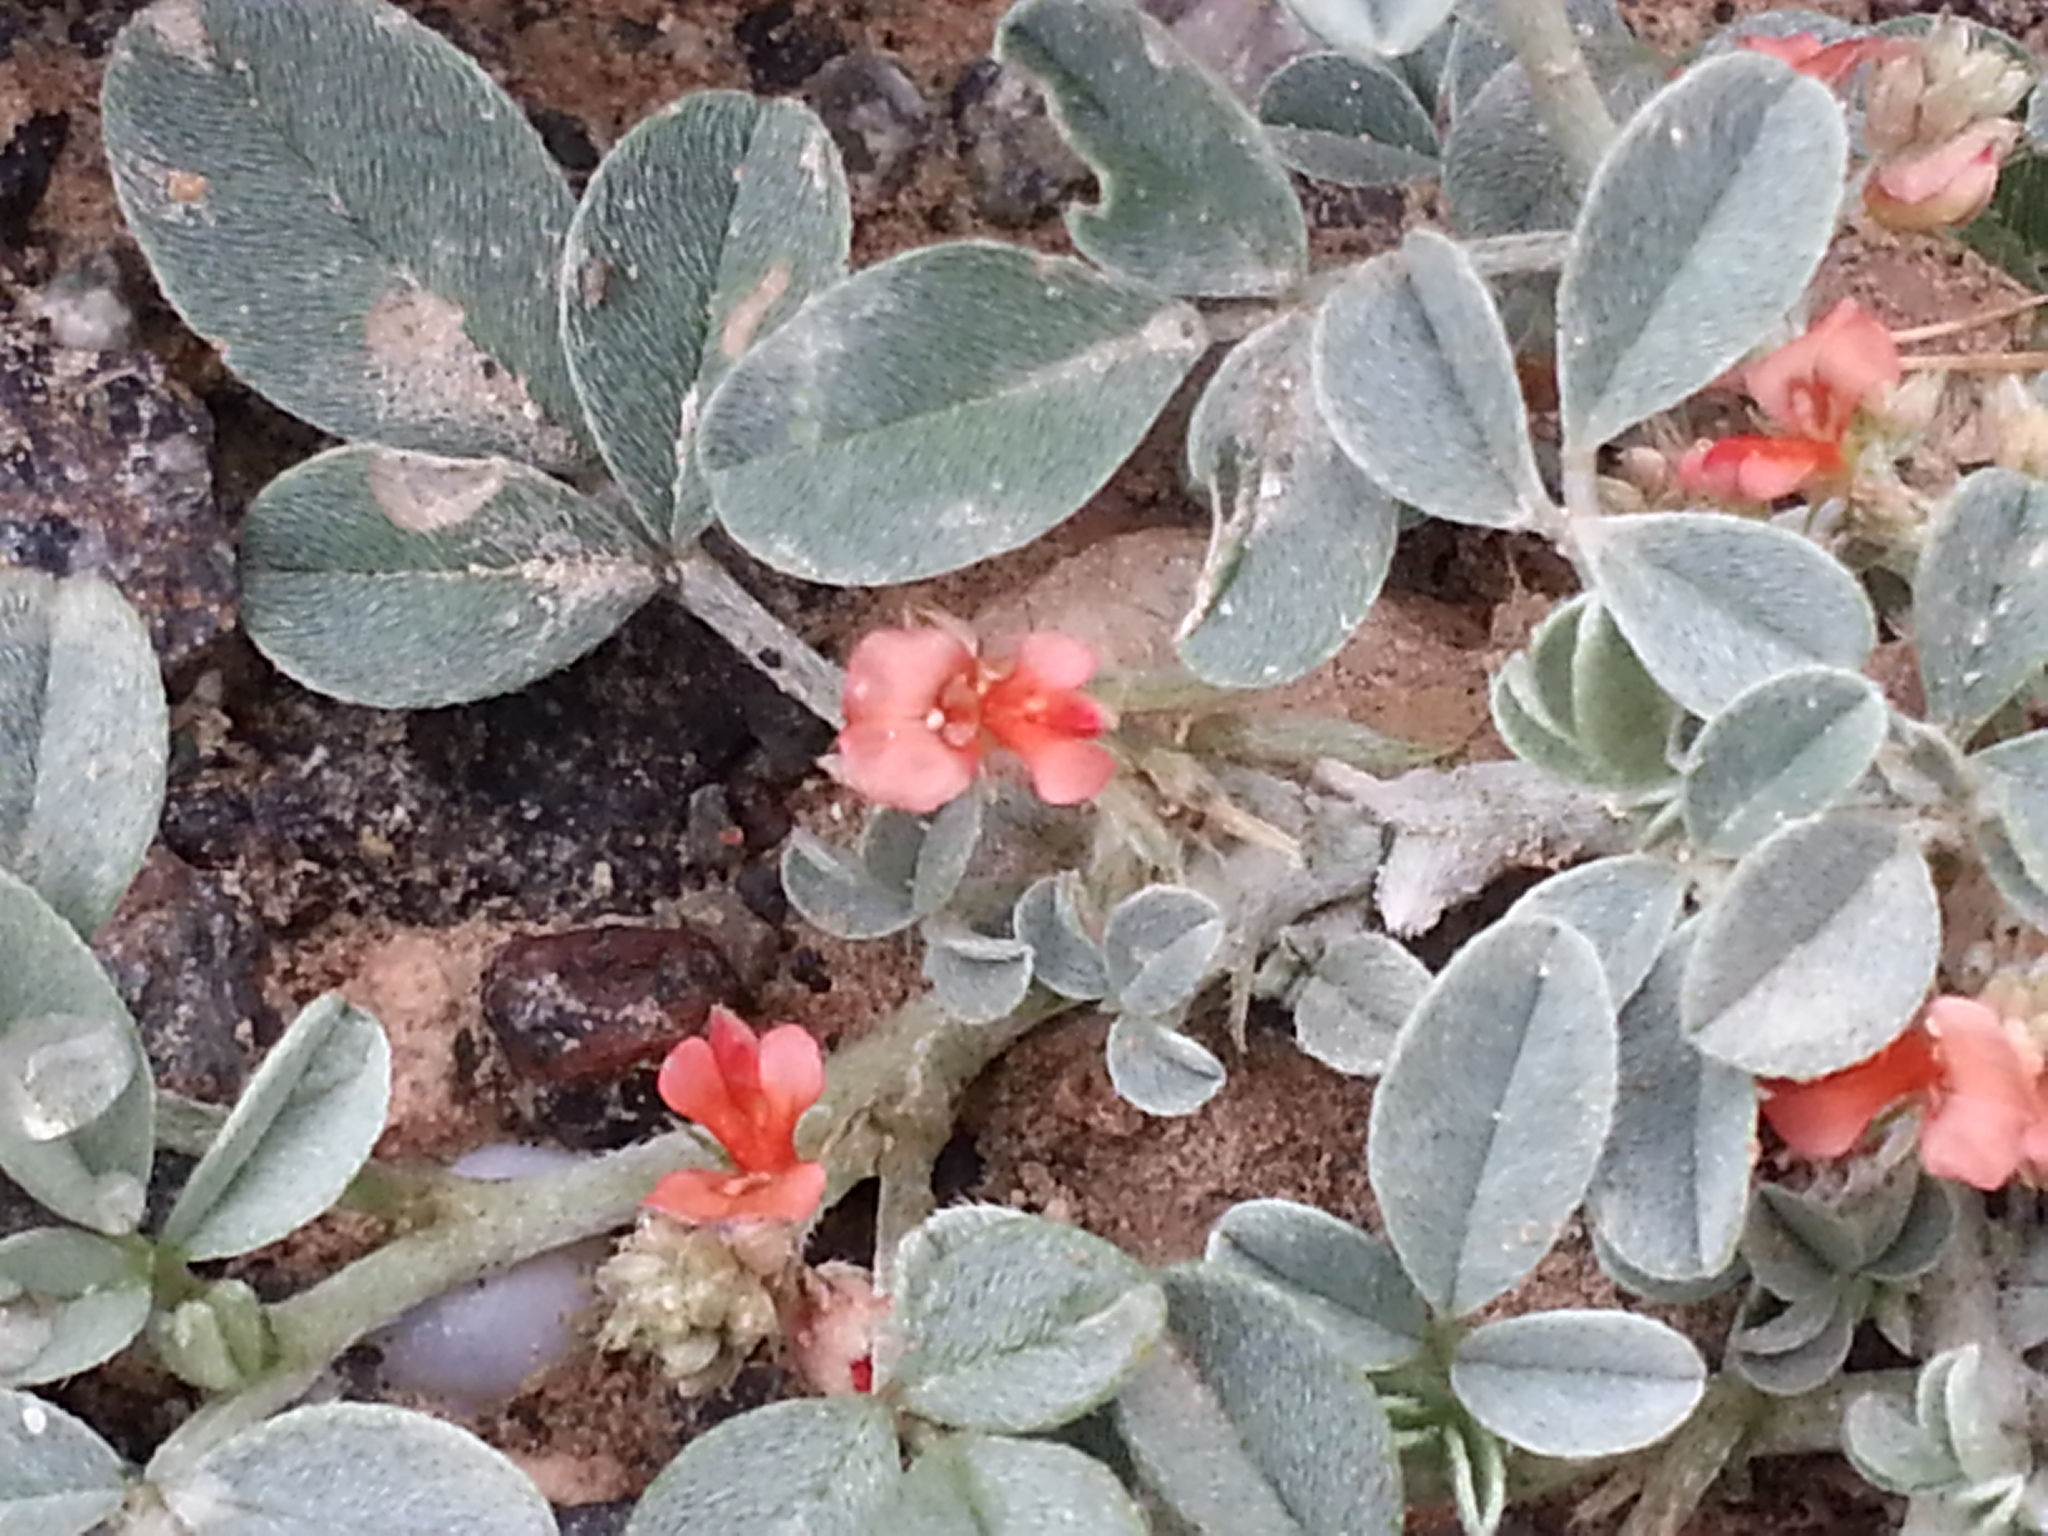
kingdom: Plantae
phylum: Tracheophyta
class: Magnoliopsida
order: Fabales
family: Fabaceae
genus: Indigofera
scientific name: Indigofera arabica
